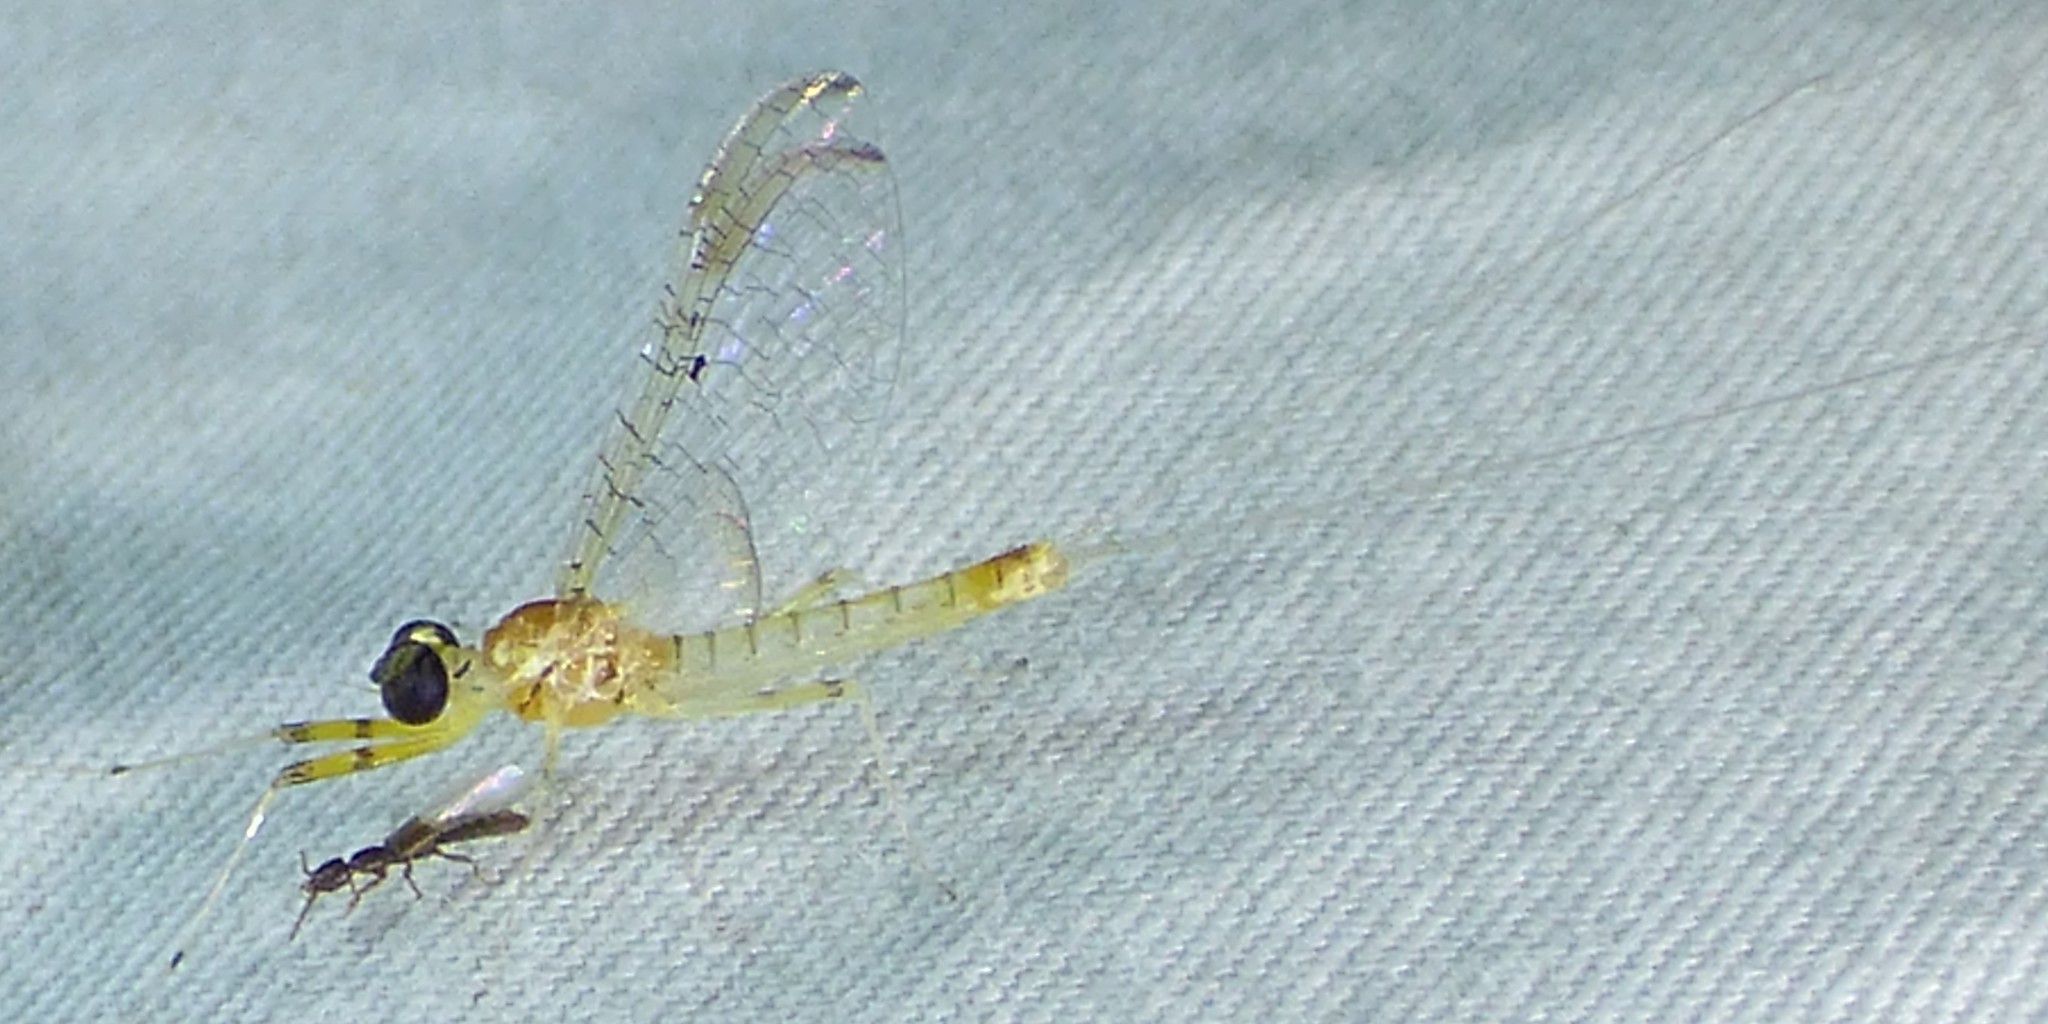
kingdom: Animalia
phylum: Arthropoda
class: Insecta
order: Ephemeroptera
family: Heptageniidae
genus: Stenacron
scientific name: Stenacron interpunctatum
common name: Orange cahill
